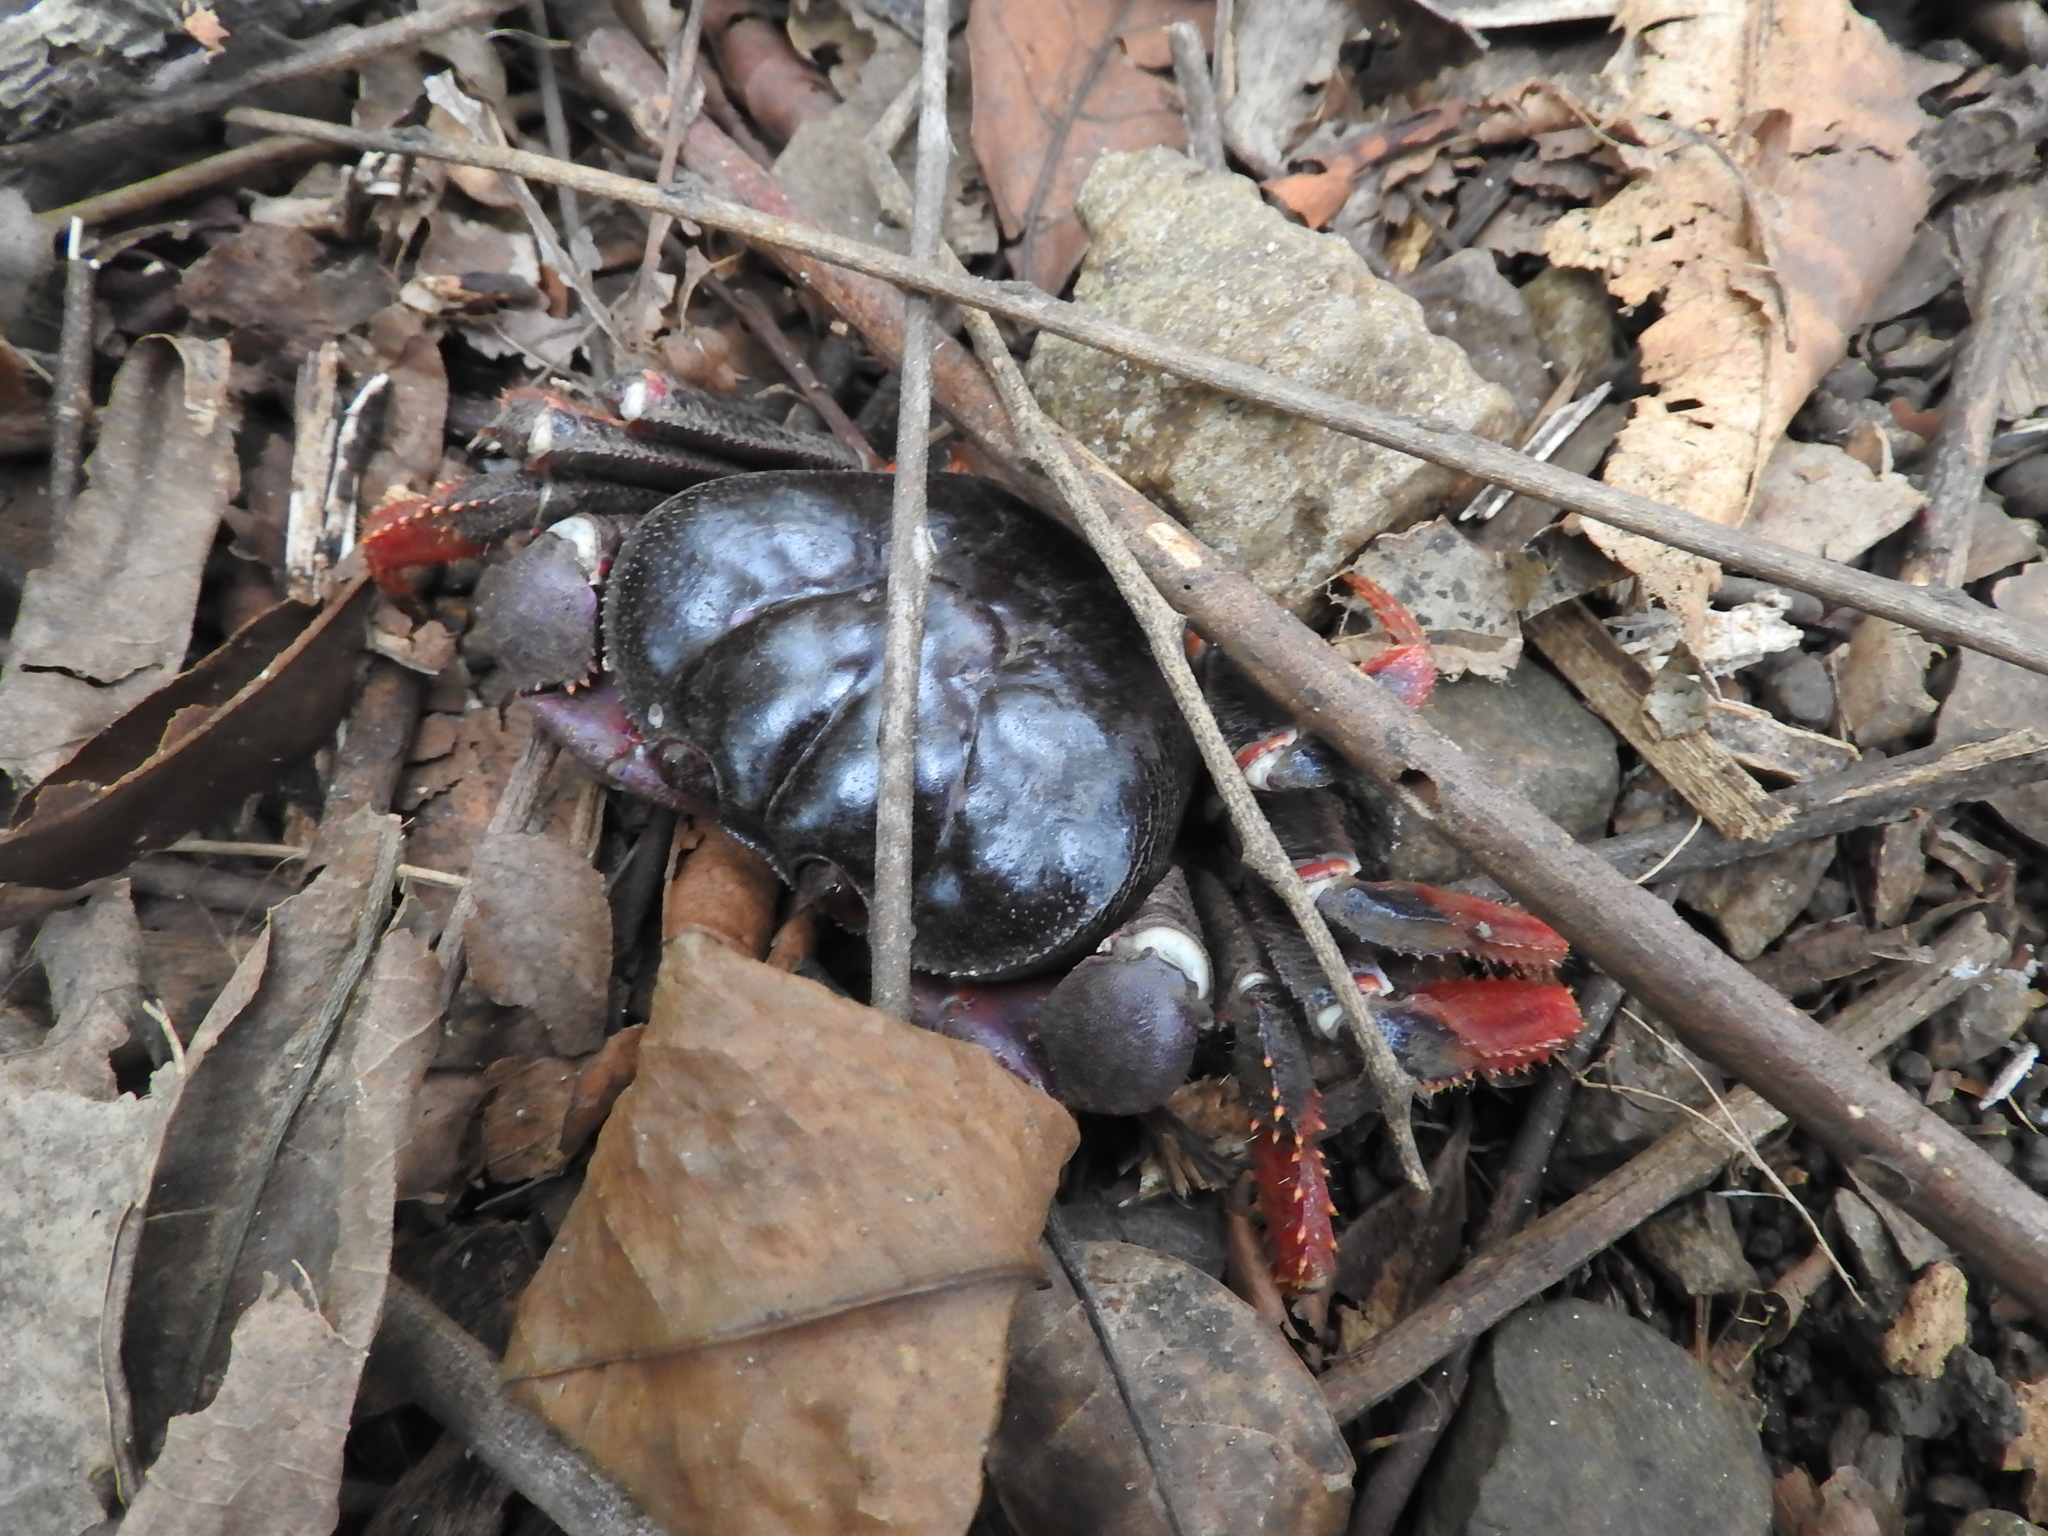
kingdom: Animalia
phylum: Arthropoda
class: Malacostraca
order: Decapoda
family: Gecarcinidae
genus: Johngarthia
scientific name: Johngarthia weileri
